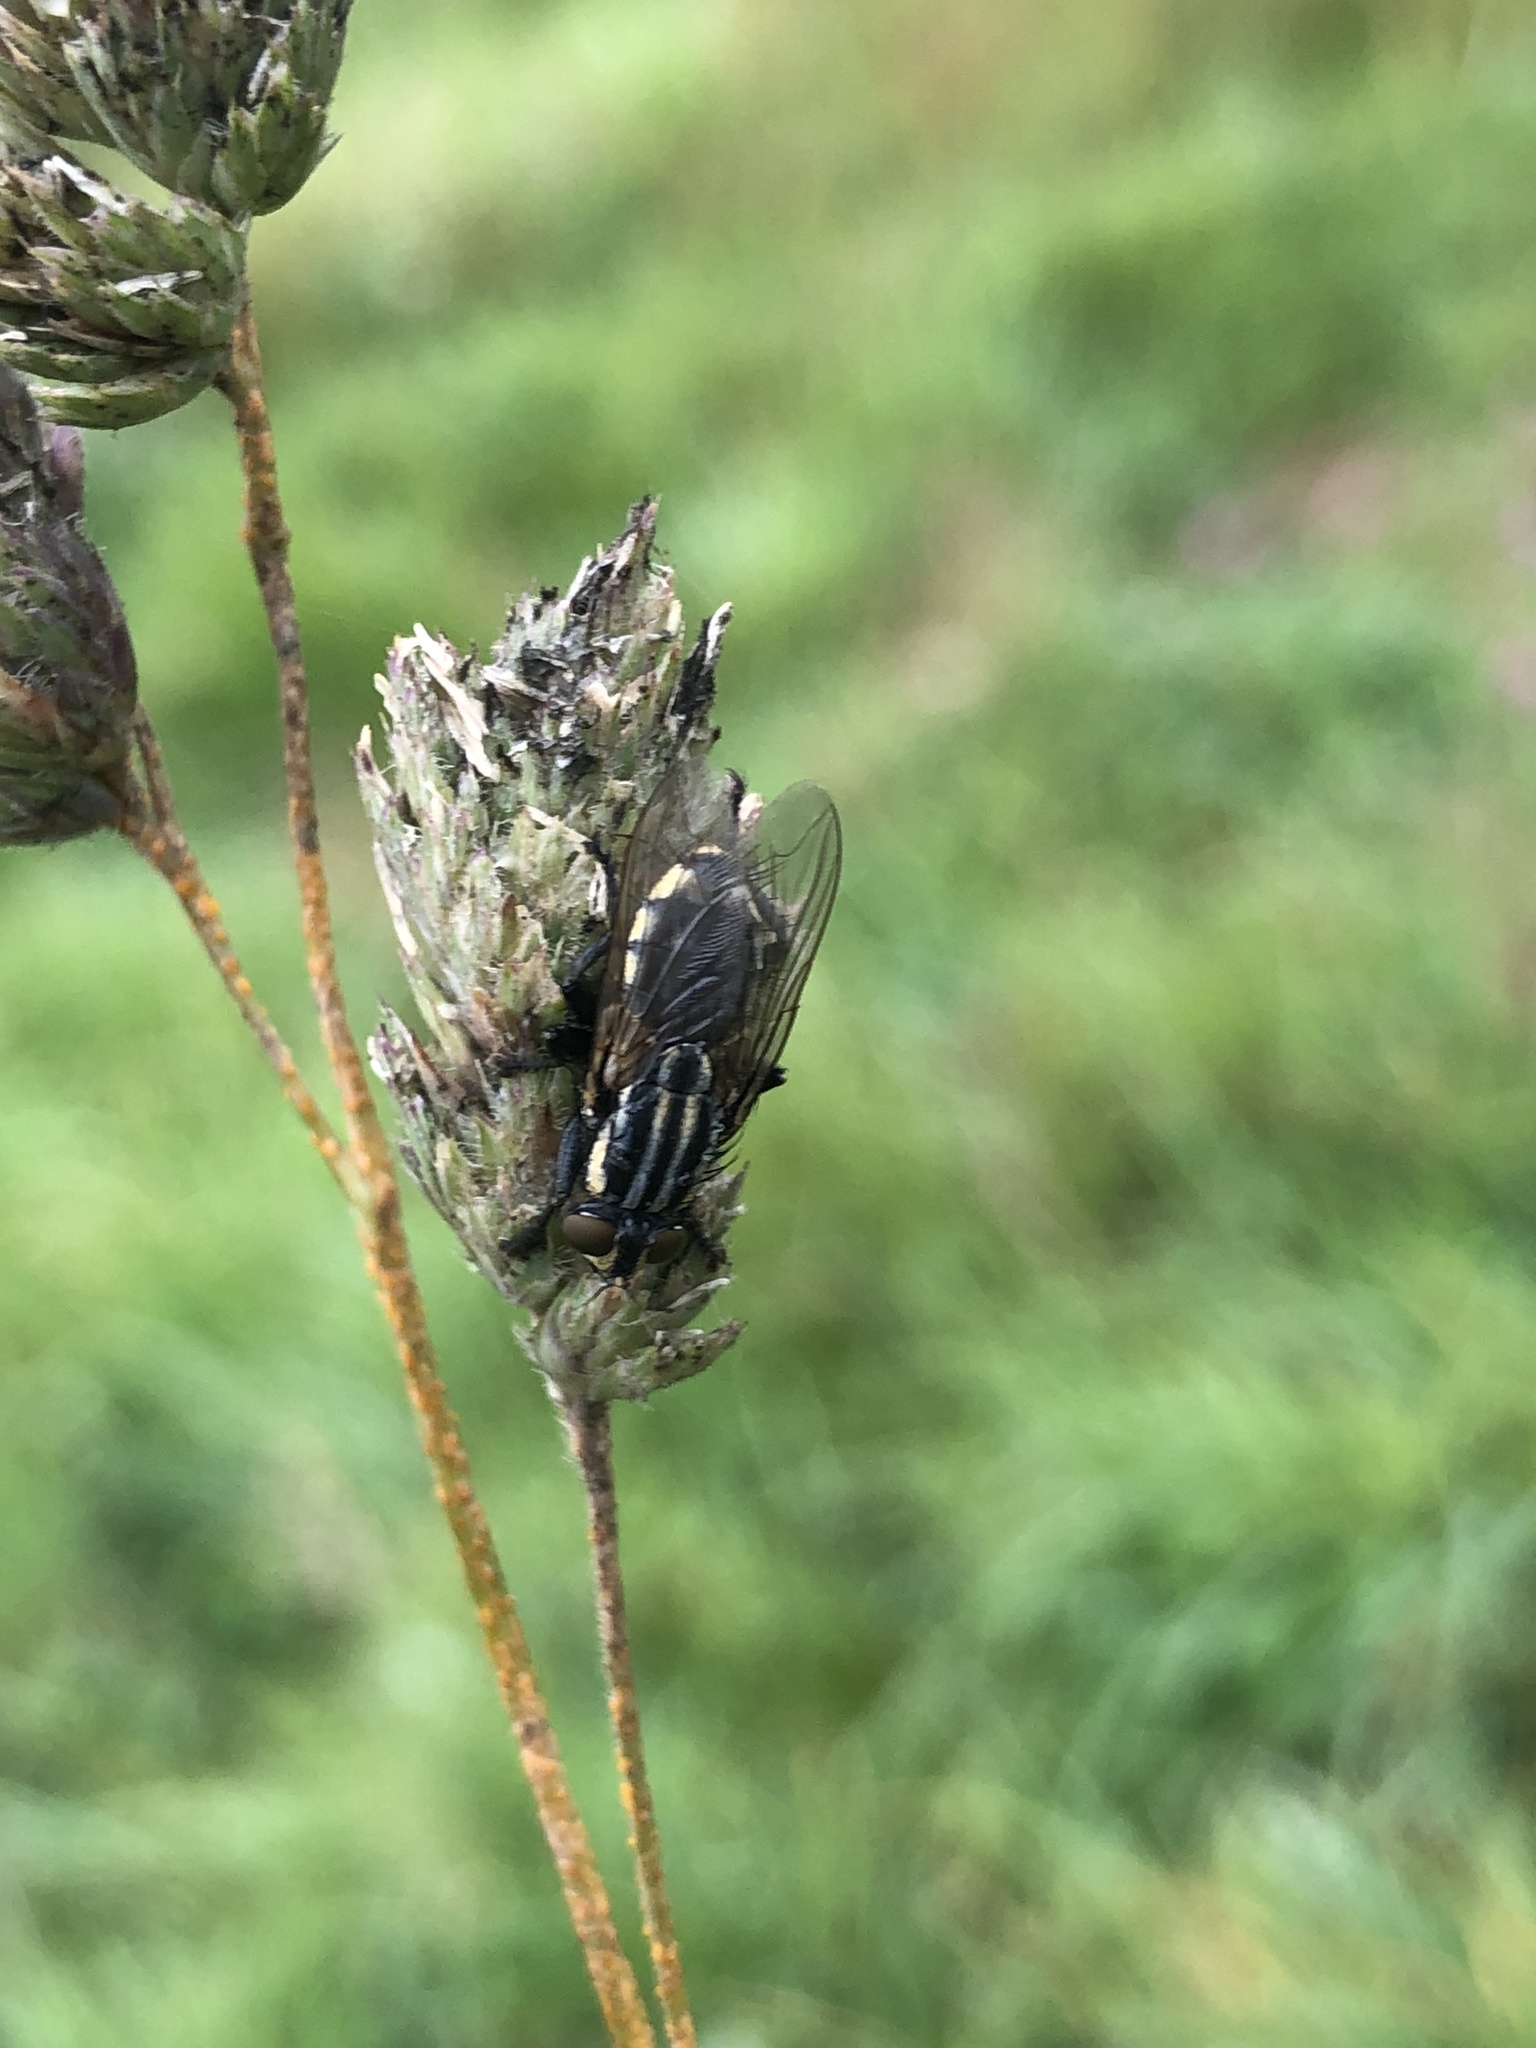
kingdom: Animalia
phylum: Arthropoda
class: Insecta
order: Diptera
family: Sarcophagidae
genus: Oxysarcodexia
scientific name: Oxysarcodexia varia
